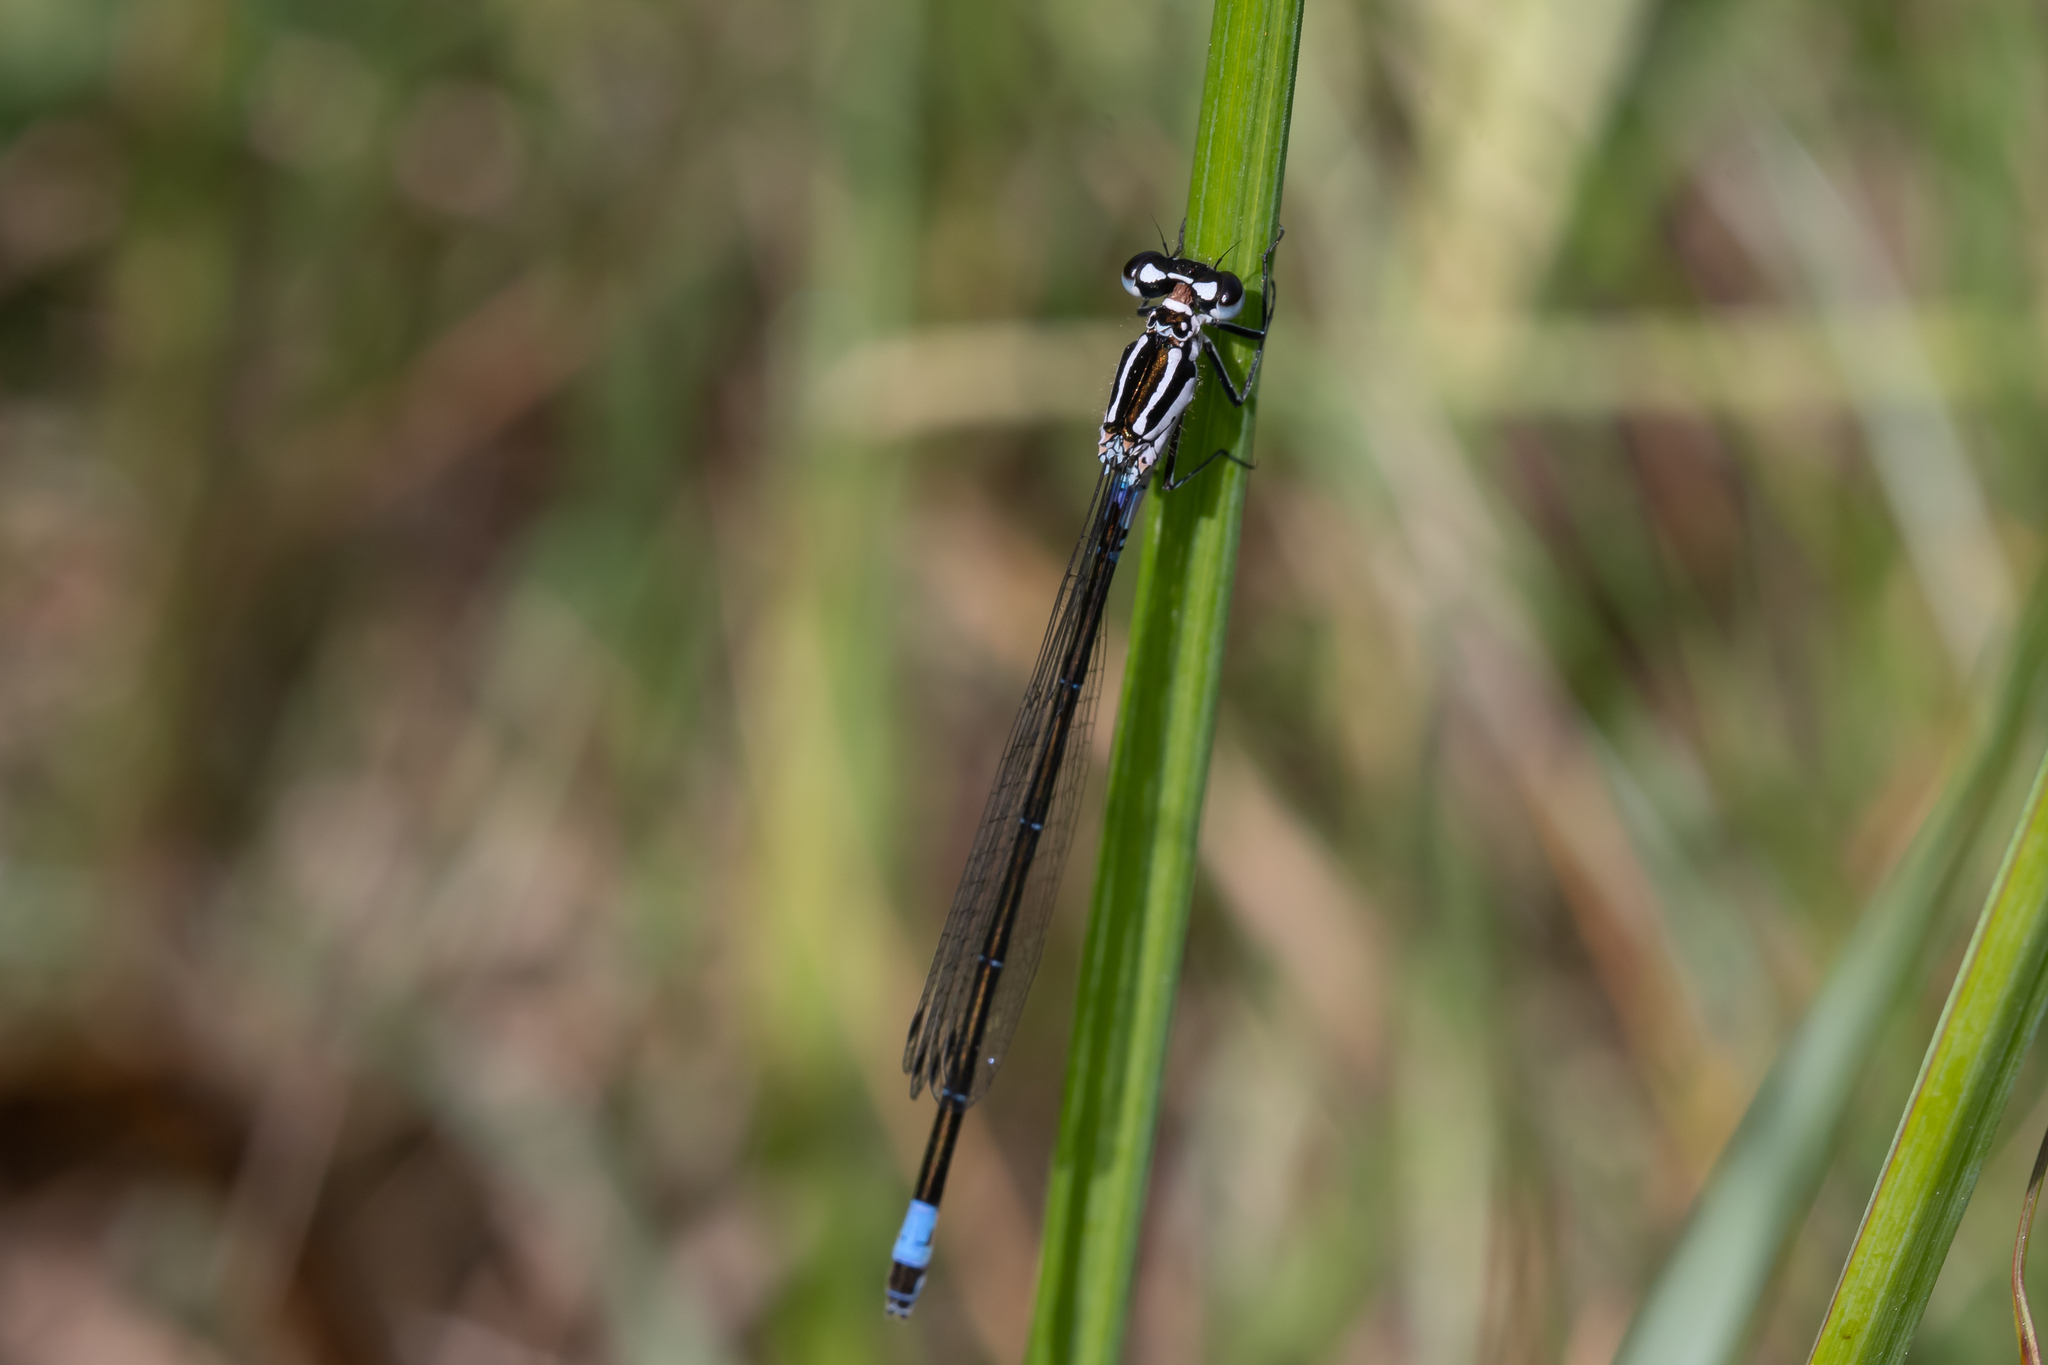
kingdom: Animalia
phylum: Arthropoda
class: Insecta
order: Odonata
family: Coenagrionidae
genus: Coenagrion
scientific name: Coenagrion pulchellum
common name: Variable bluet
